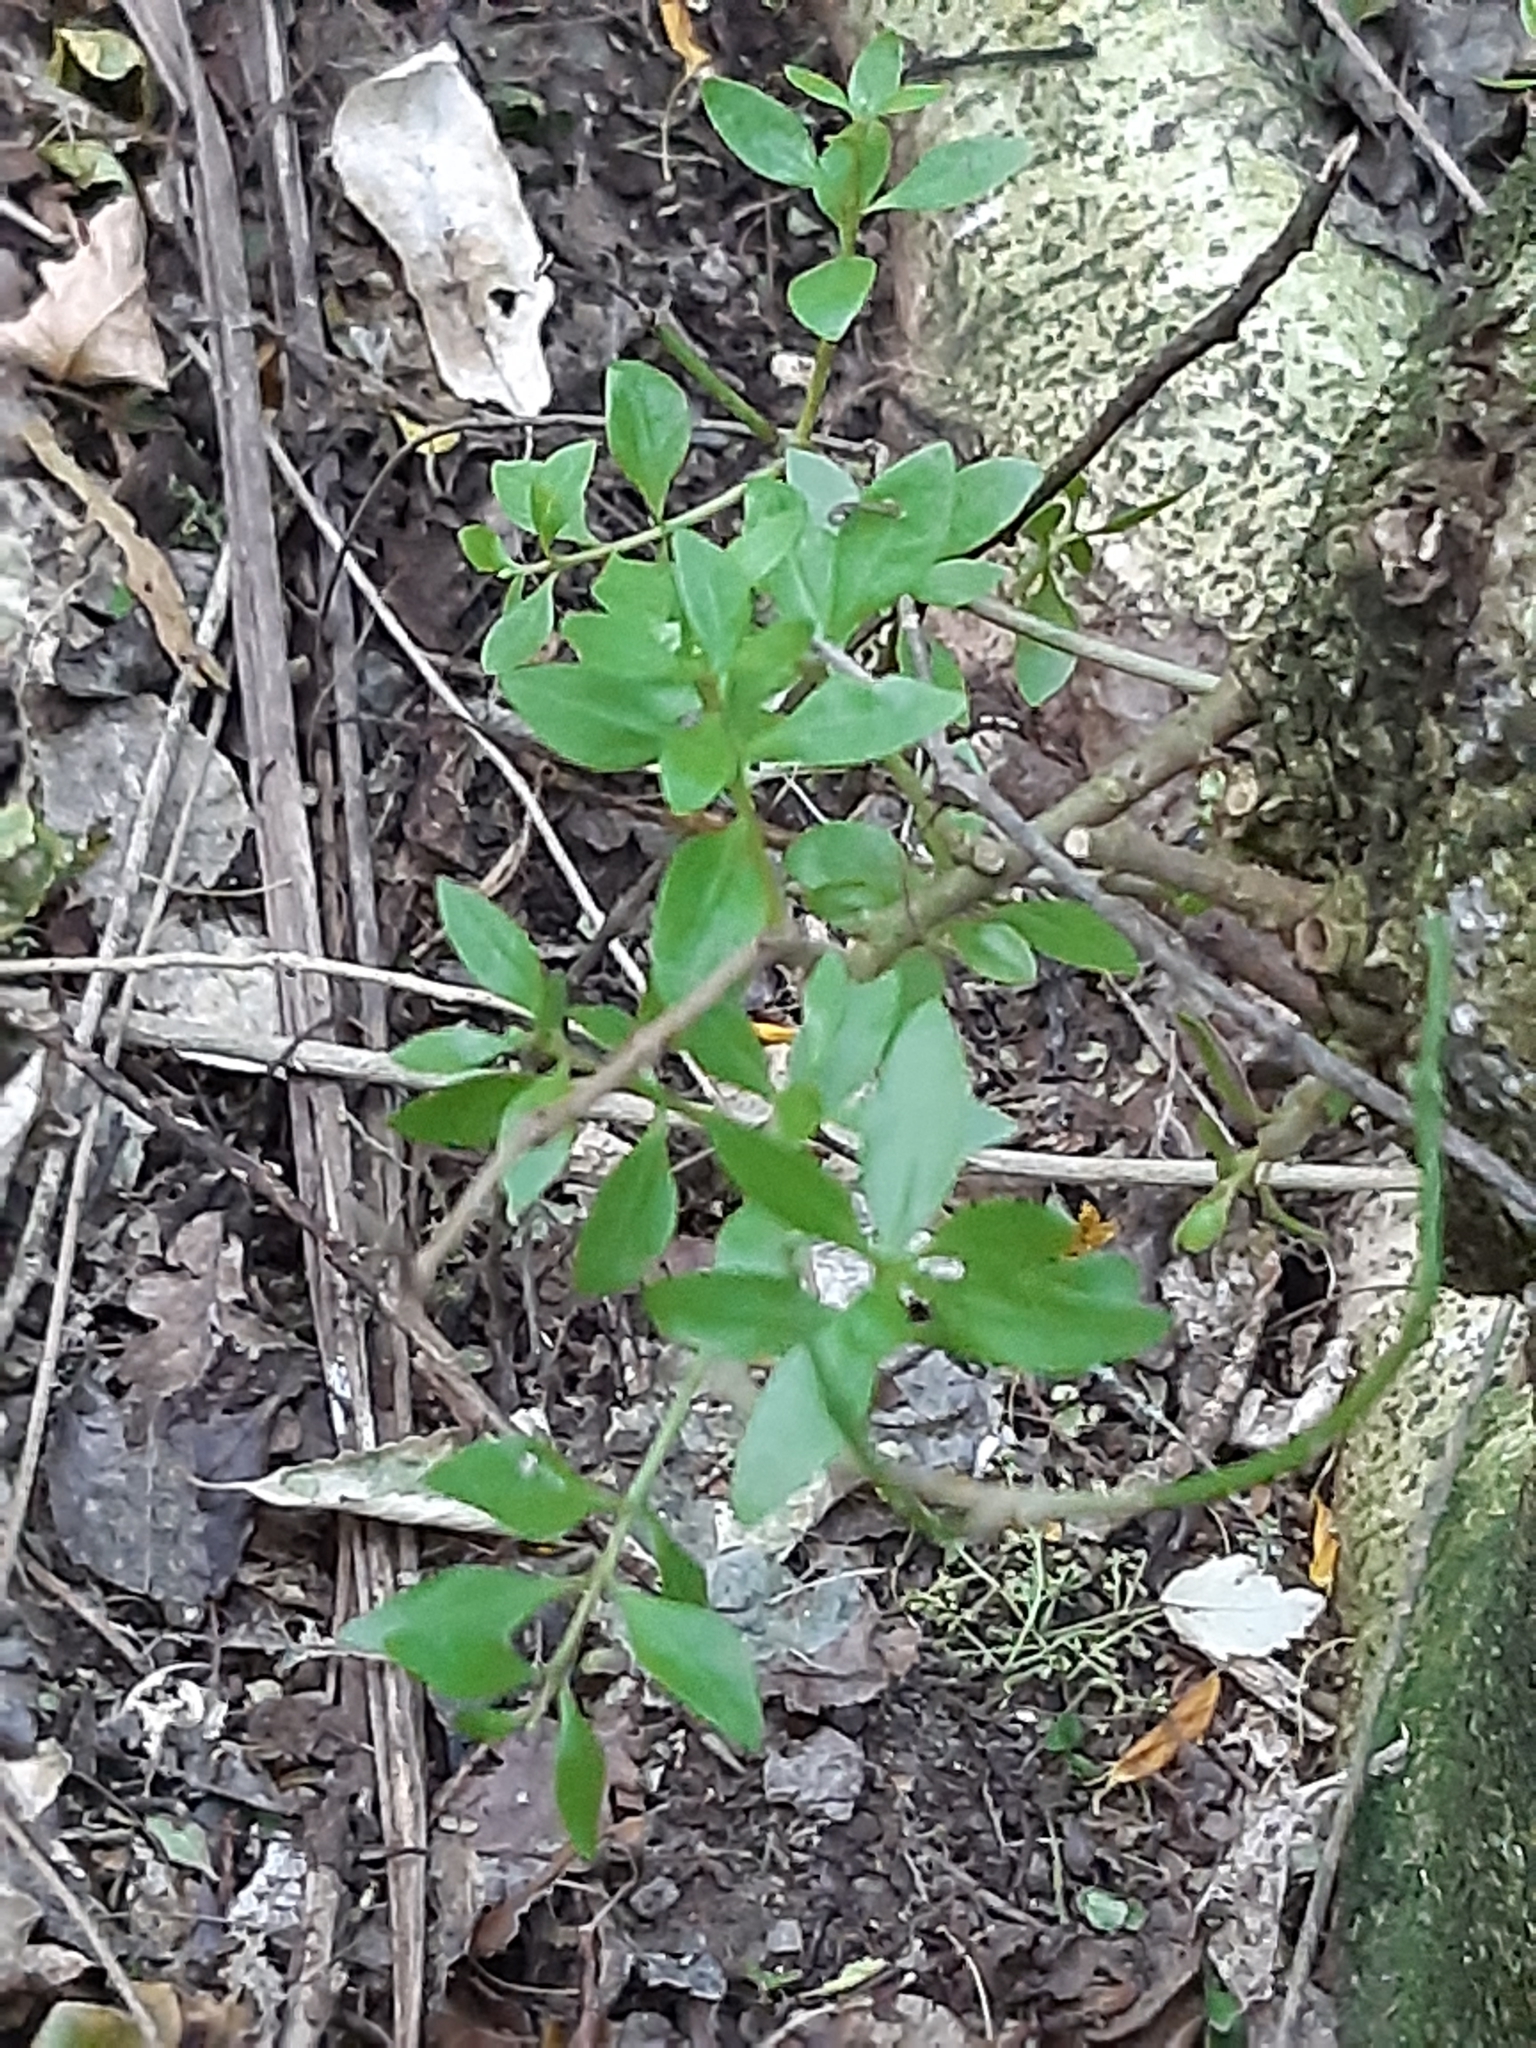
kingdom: Plantae
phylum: Tracheophyta
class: Magnoliopsida
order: Santalales
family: Loranthaceae
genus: Tupeia
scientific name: Tupeia antarctica
